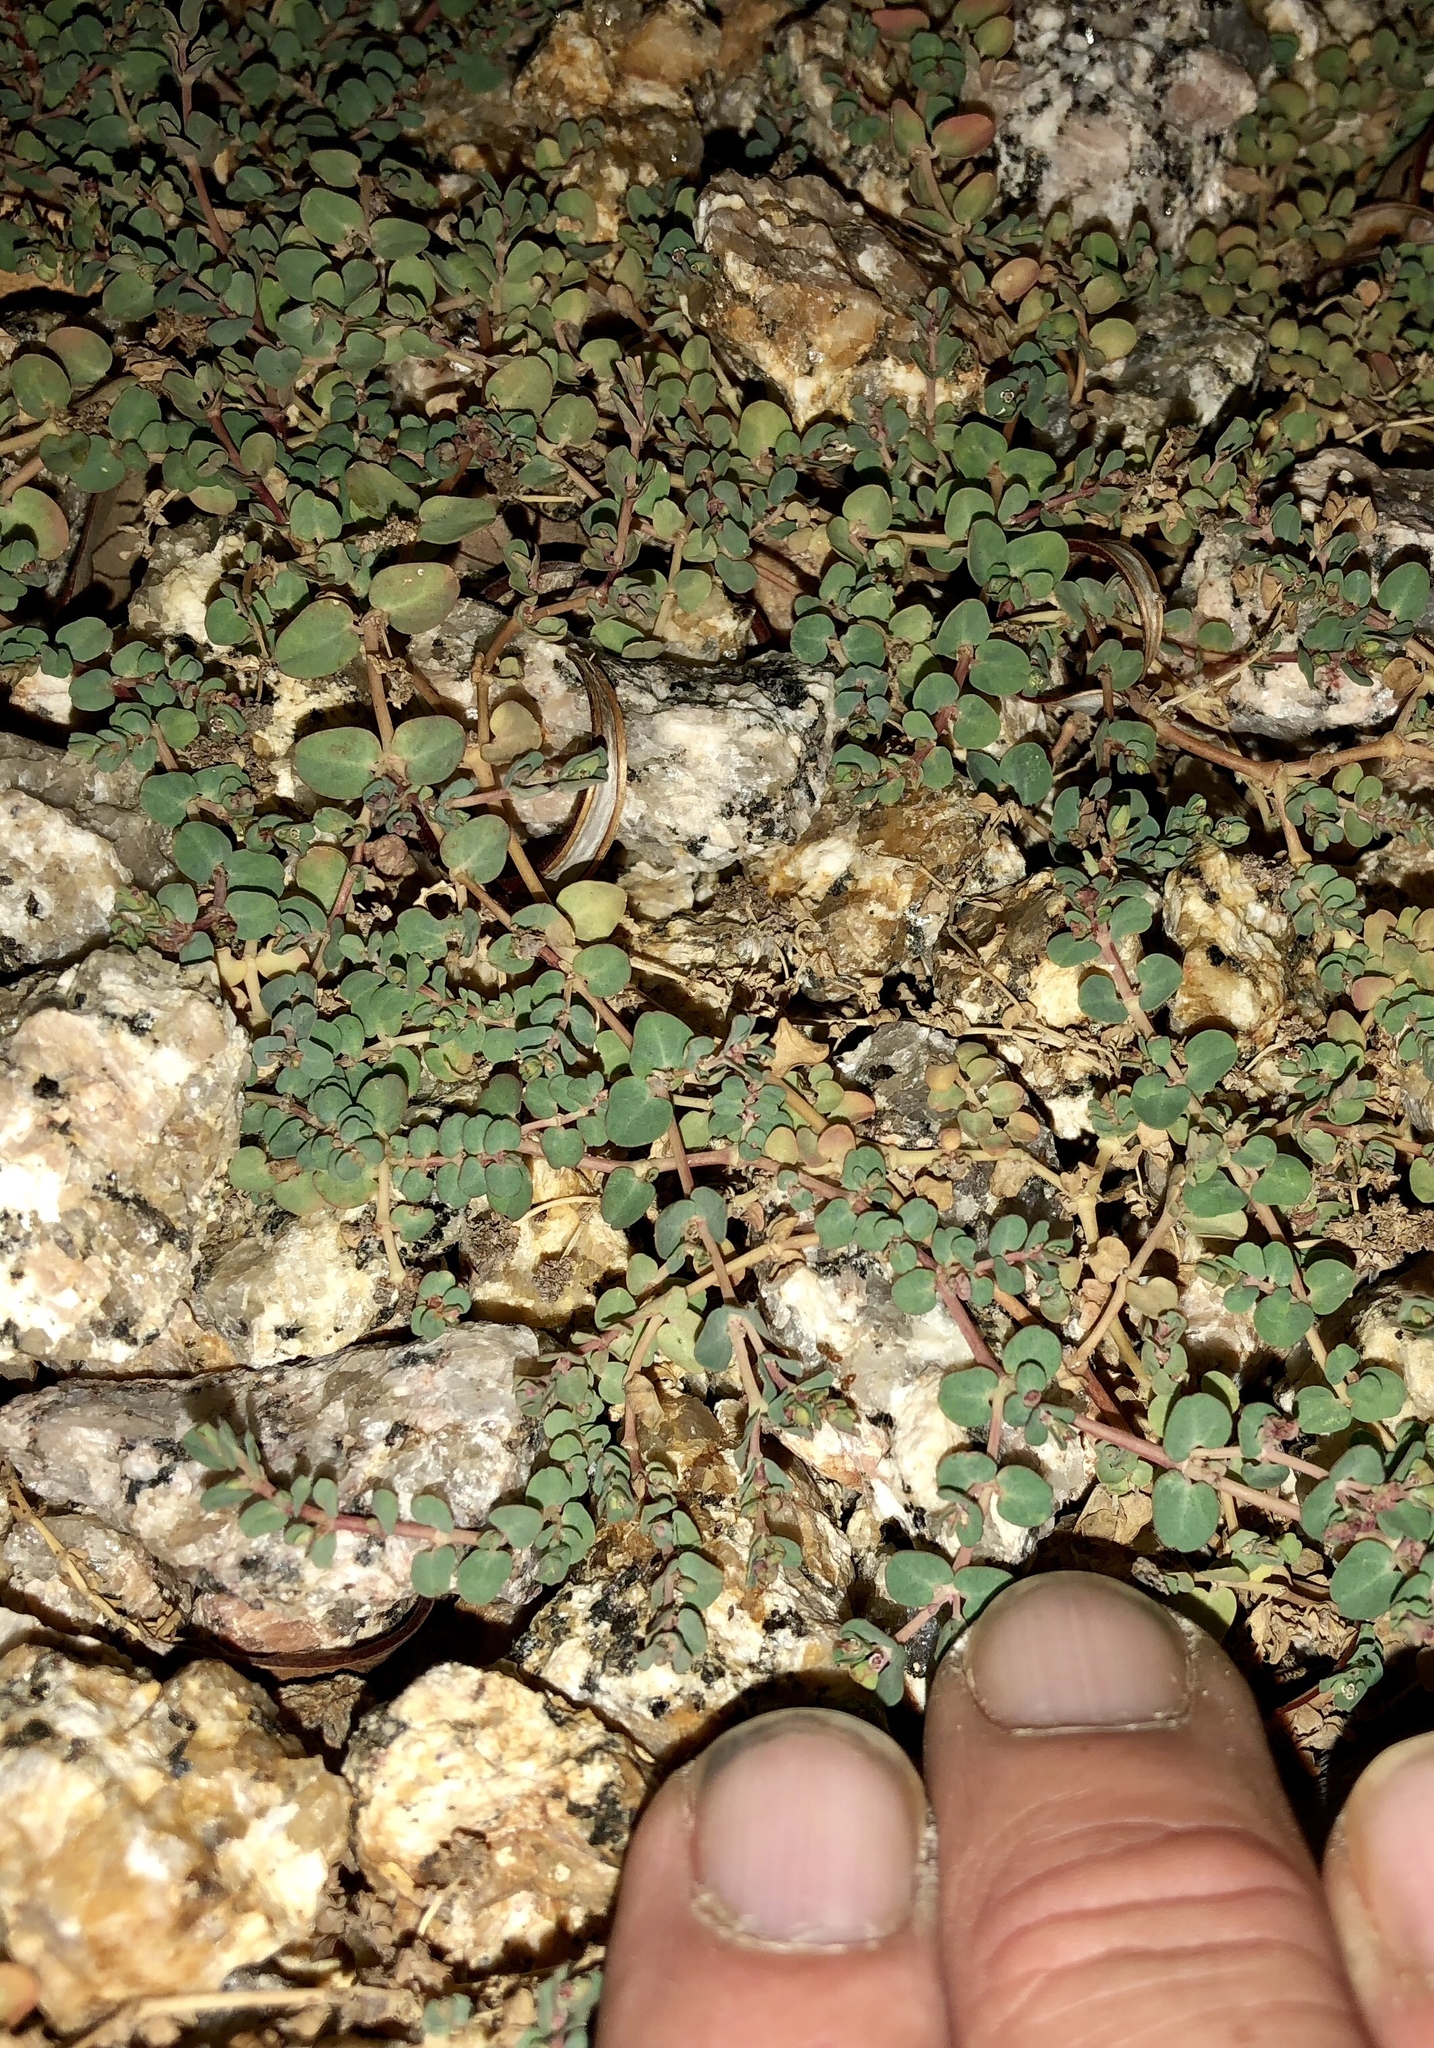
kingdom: Plantae
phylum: Tracheophyta
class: Magnoliopsida
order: Malpighiales
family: Euphorbiaceae
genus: Euphorbia
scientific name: Euphorbia serpens
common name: Matted sandmat
